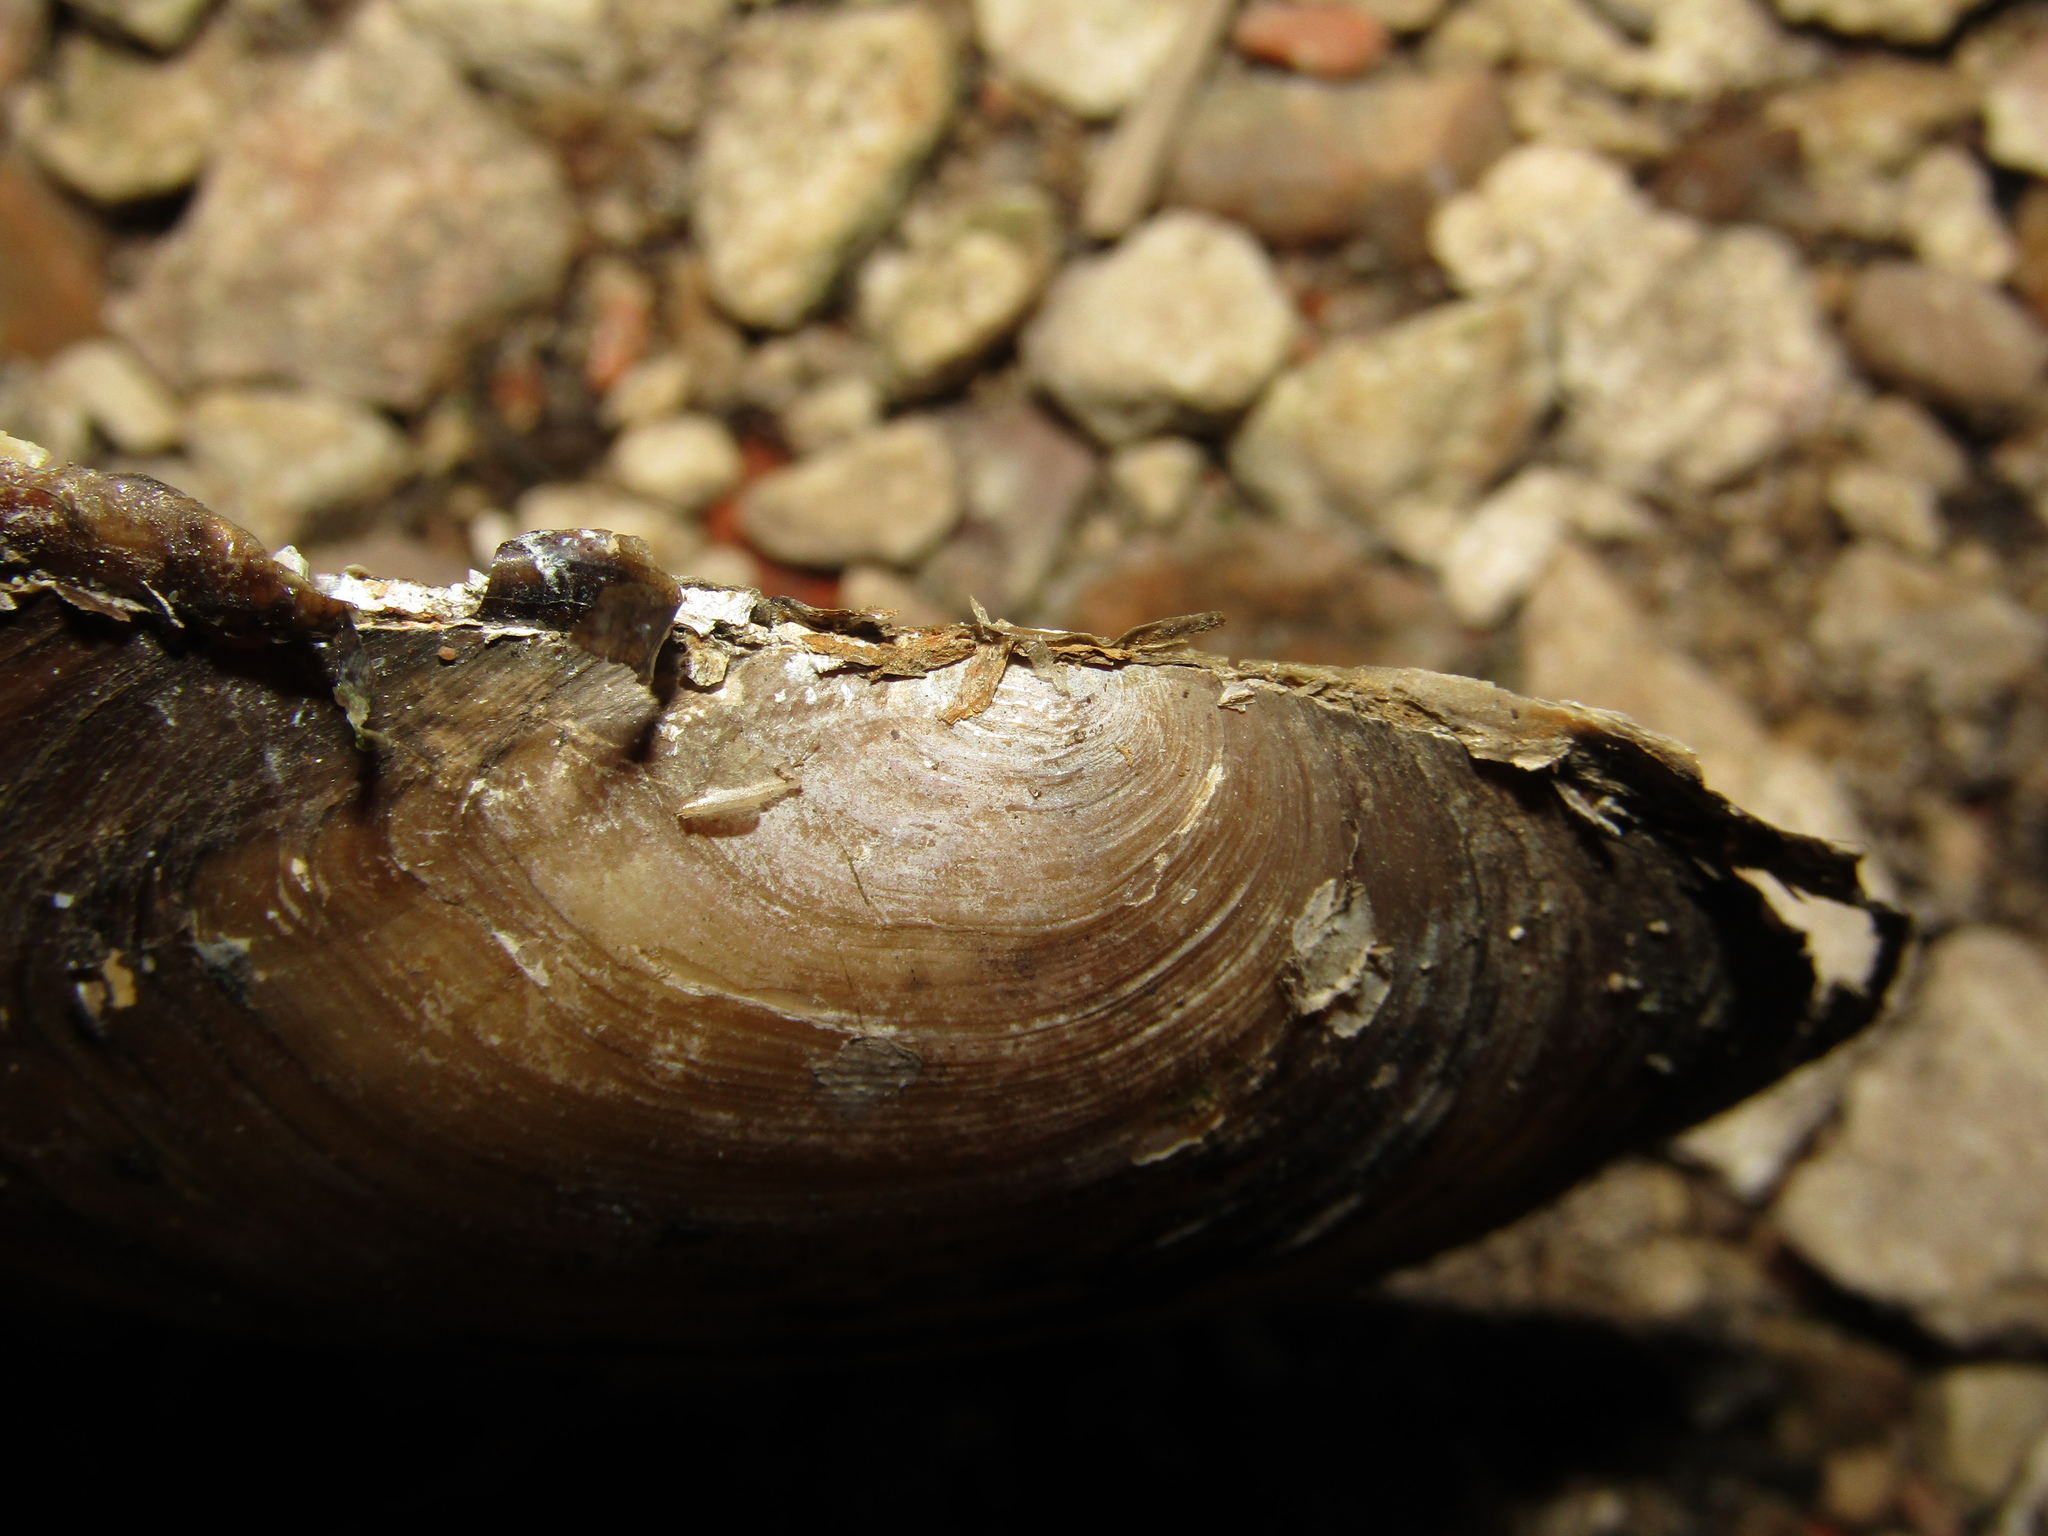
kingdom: Animalia
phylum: Mollusca
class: Bivalvia
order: Unionida
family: Unionidae
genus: Anodonta
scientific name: Anodonta anatina
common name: Duck mussel
